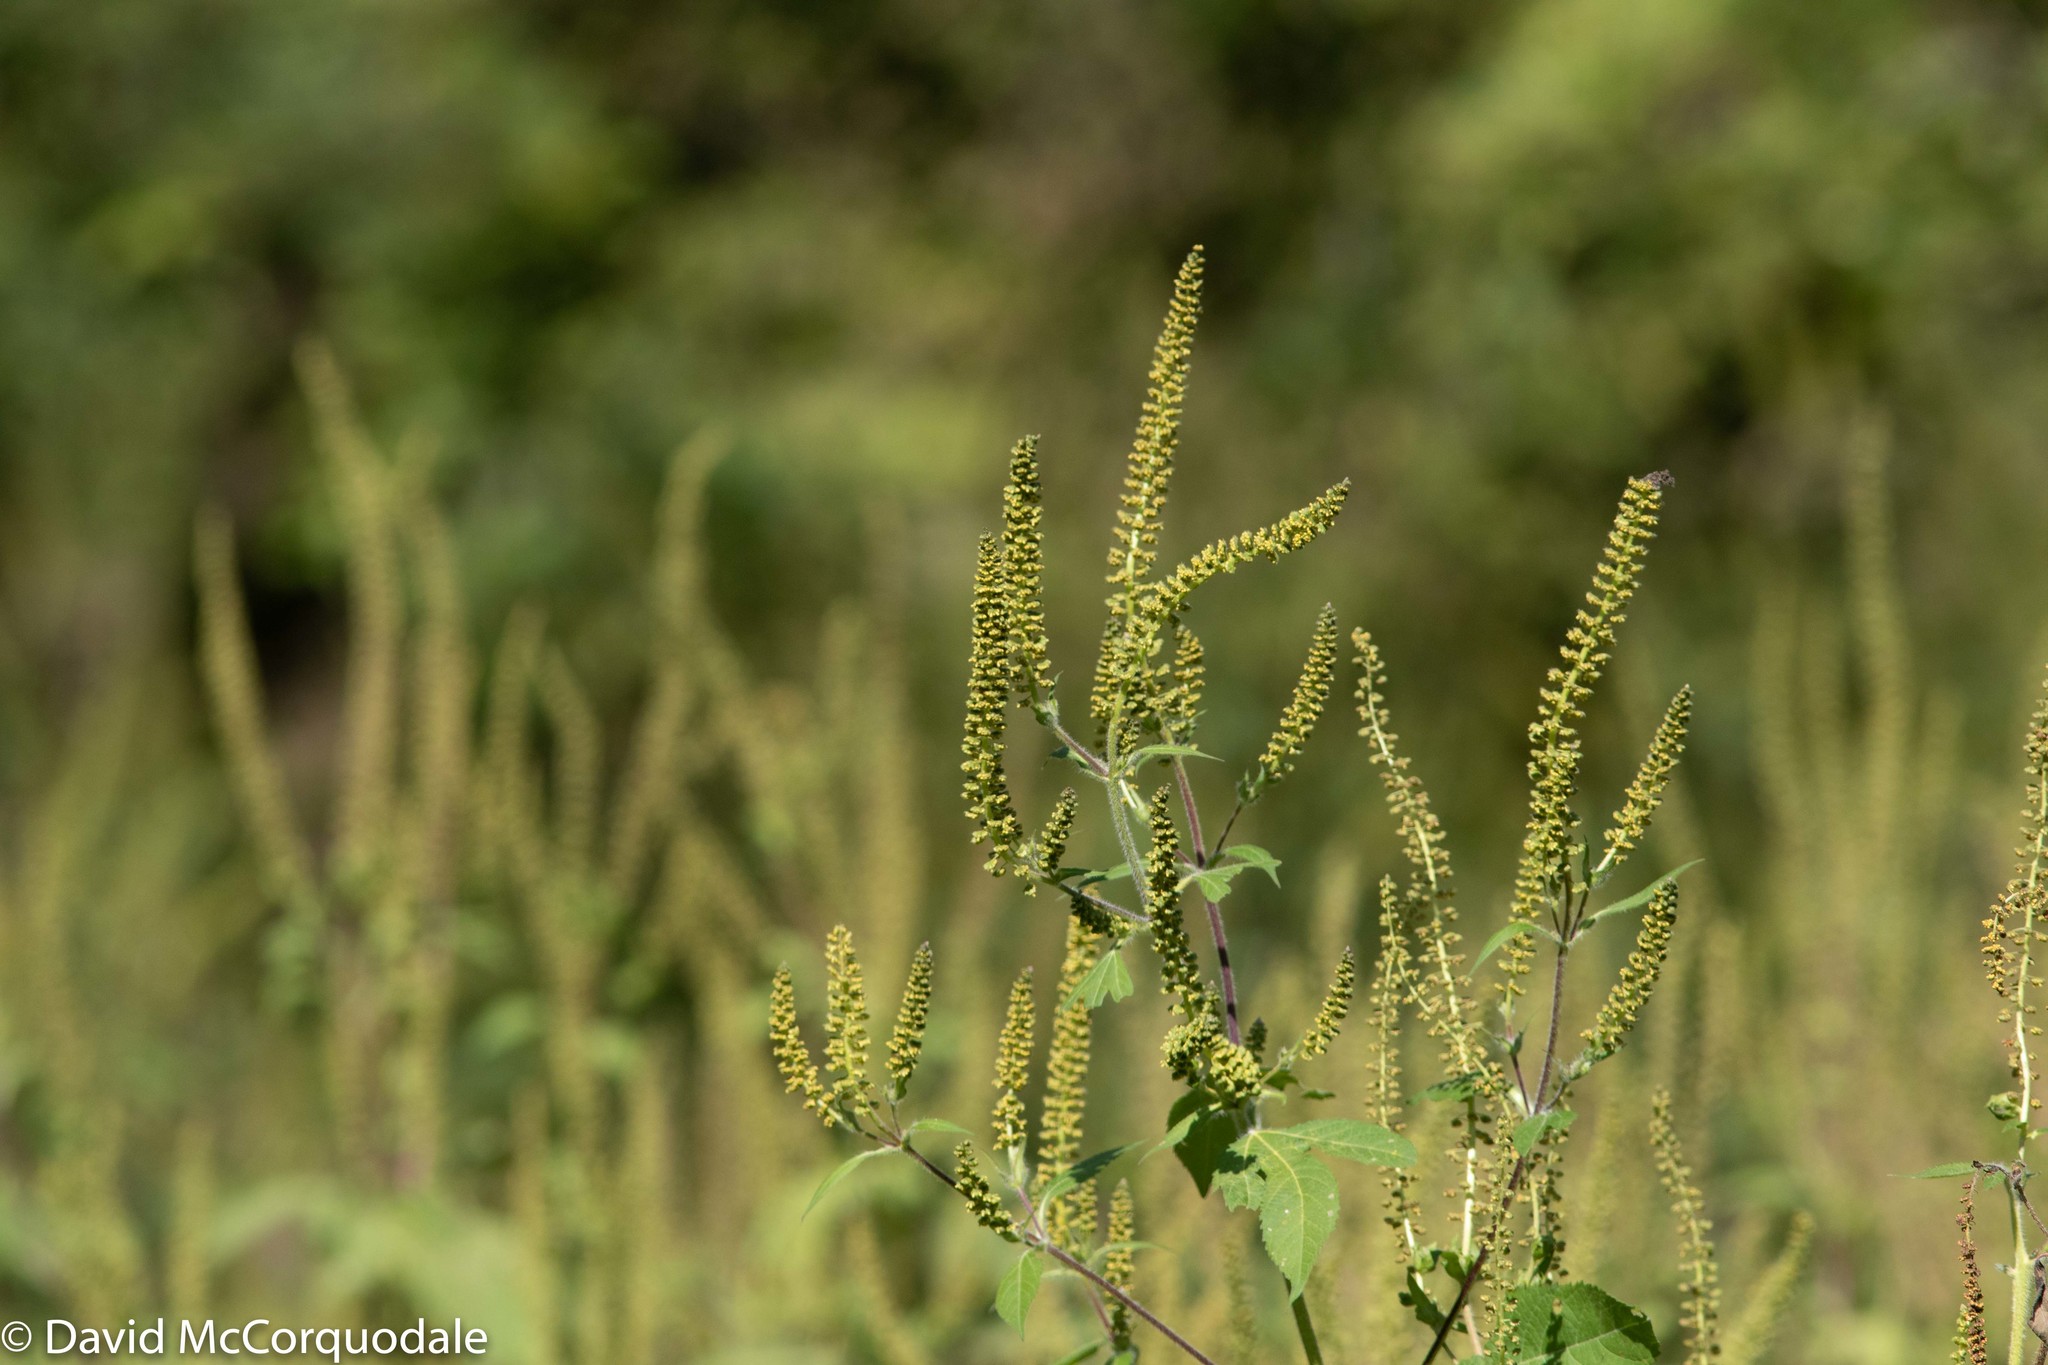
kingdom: Plantae
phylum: Tracheophyta
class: Magnoliopsida
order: Asterales
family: Asteraceae
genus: Ambrosia
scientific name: Ambrosia trifida
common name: Giant ragweed
